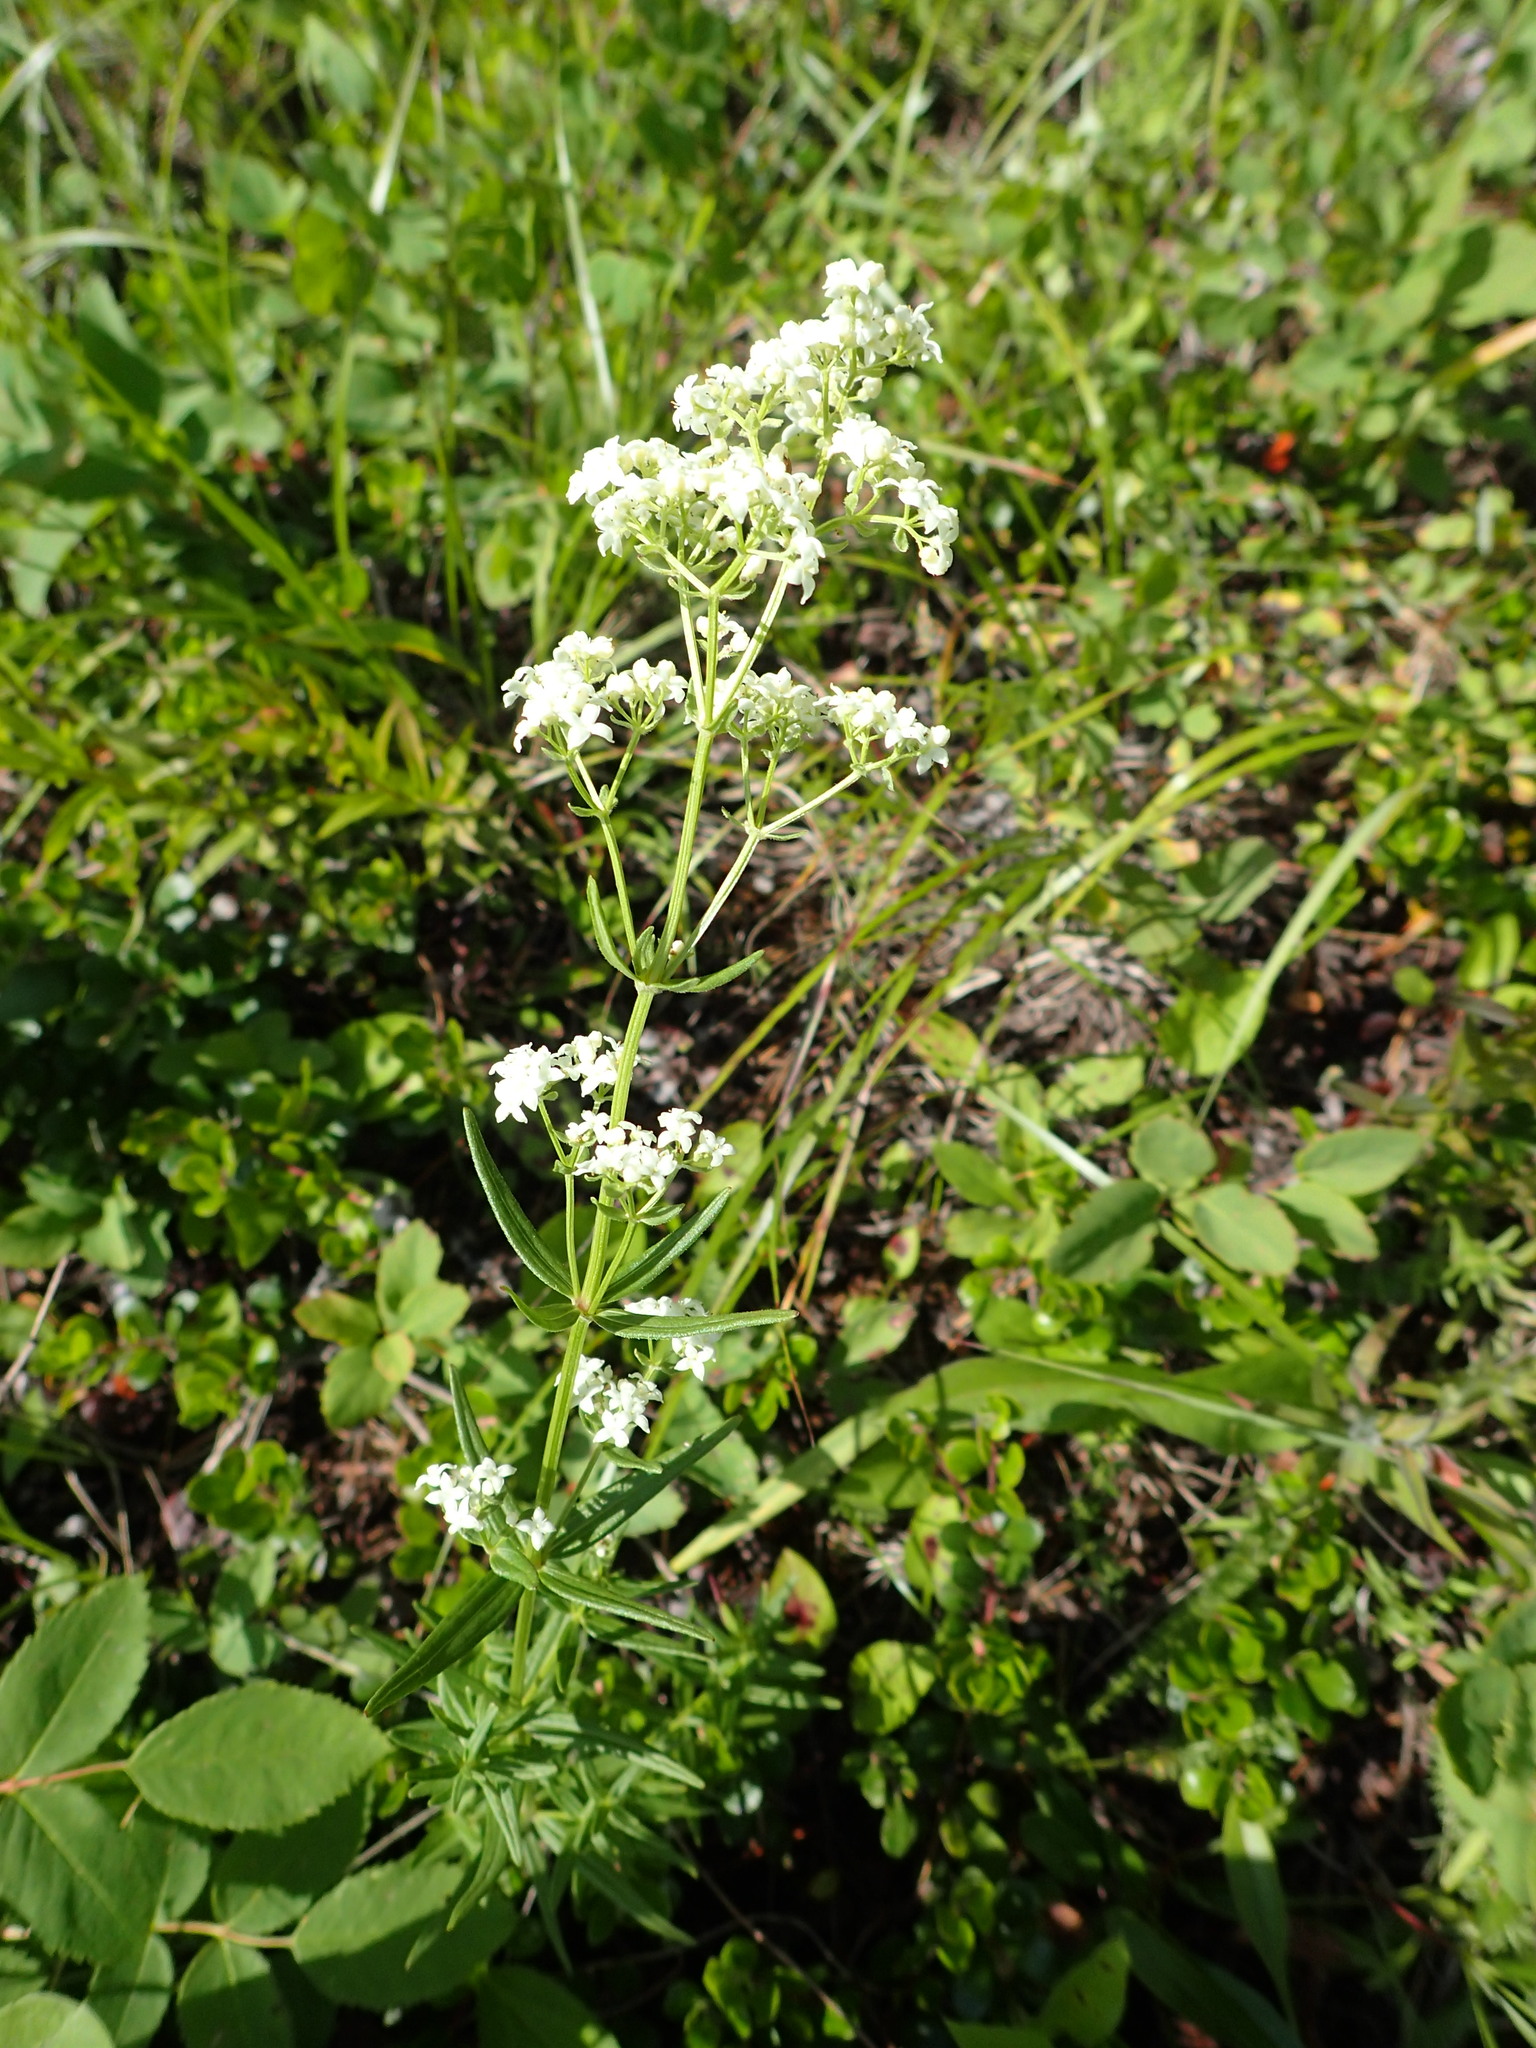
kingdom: Plantae
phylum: Tracheophyta
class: Magnoliopsida
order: Gentianales
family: Rubiaceae
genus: Galium
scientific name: Galium boreale
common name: Northern bedstraw
